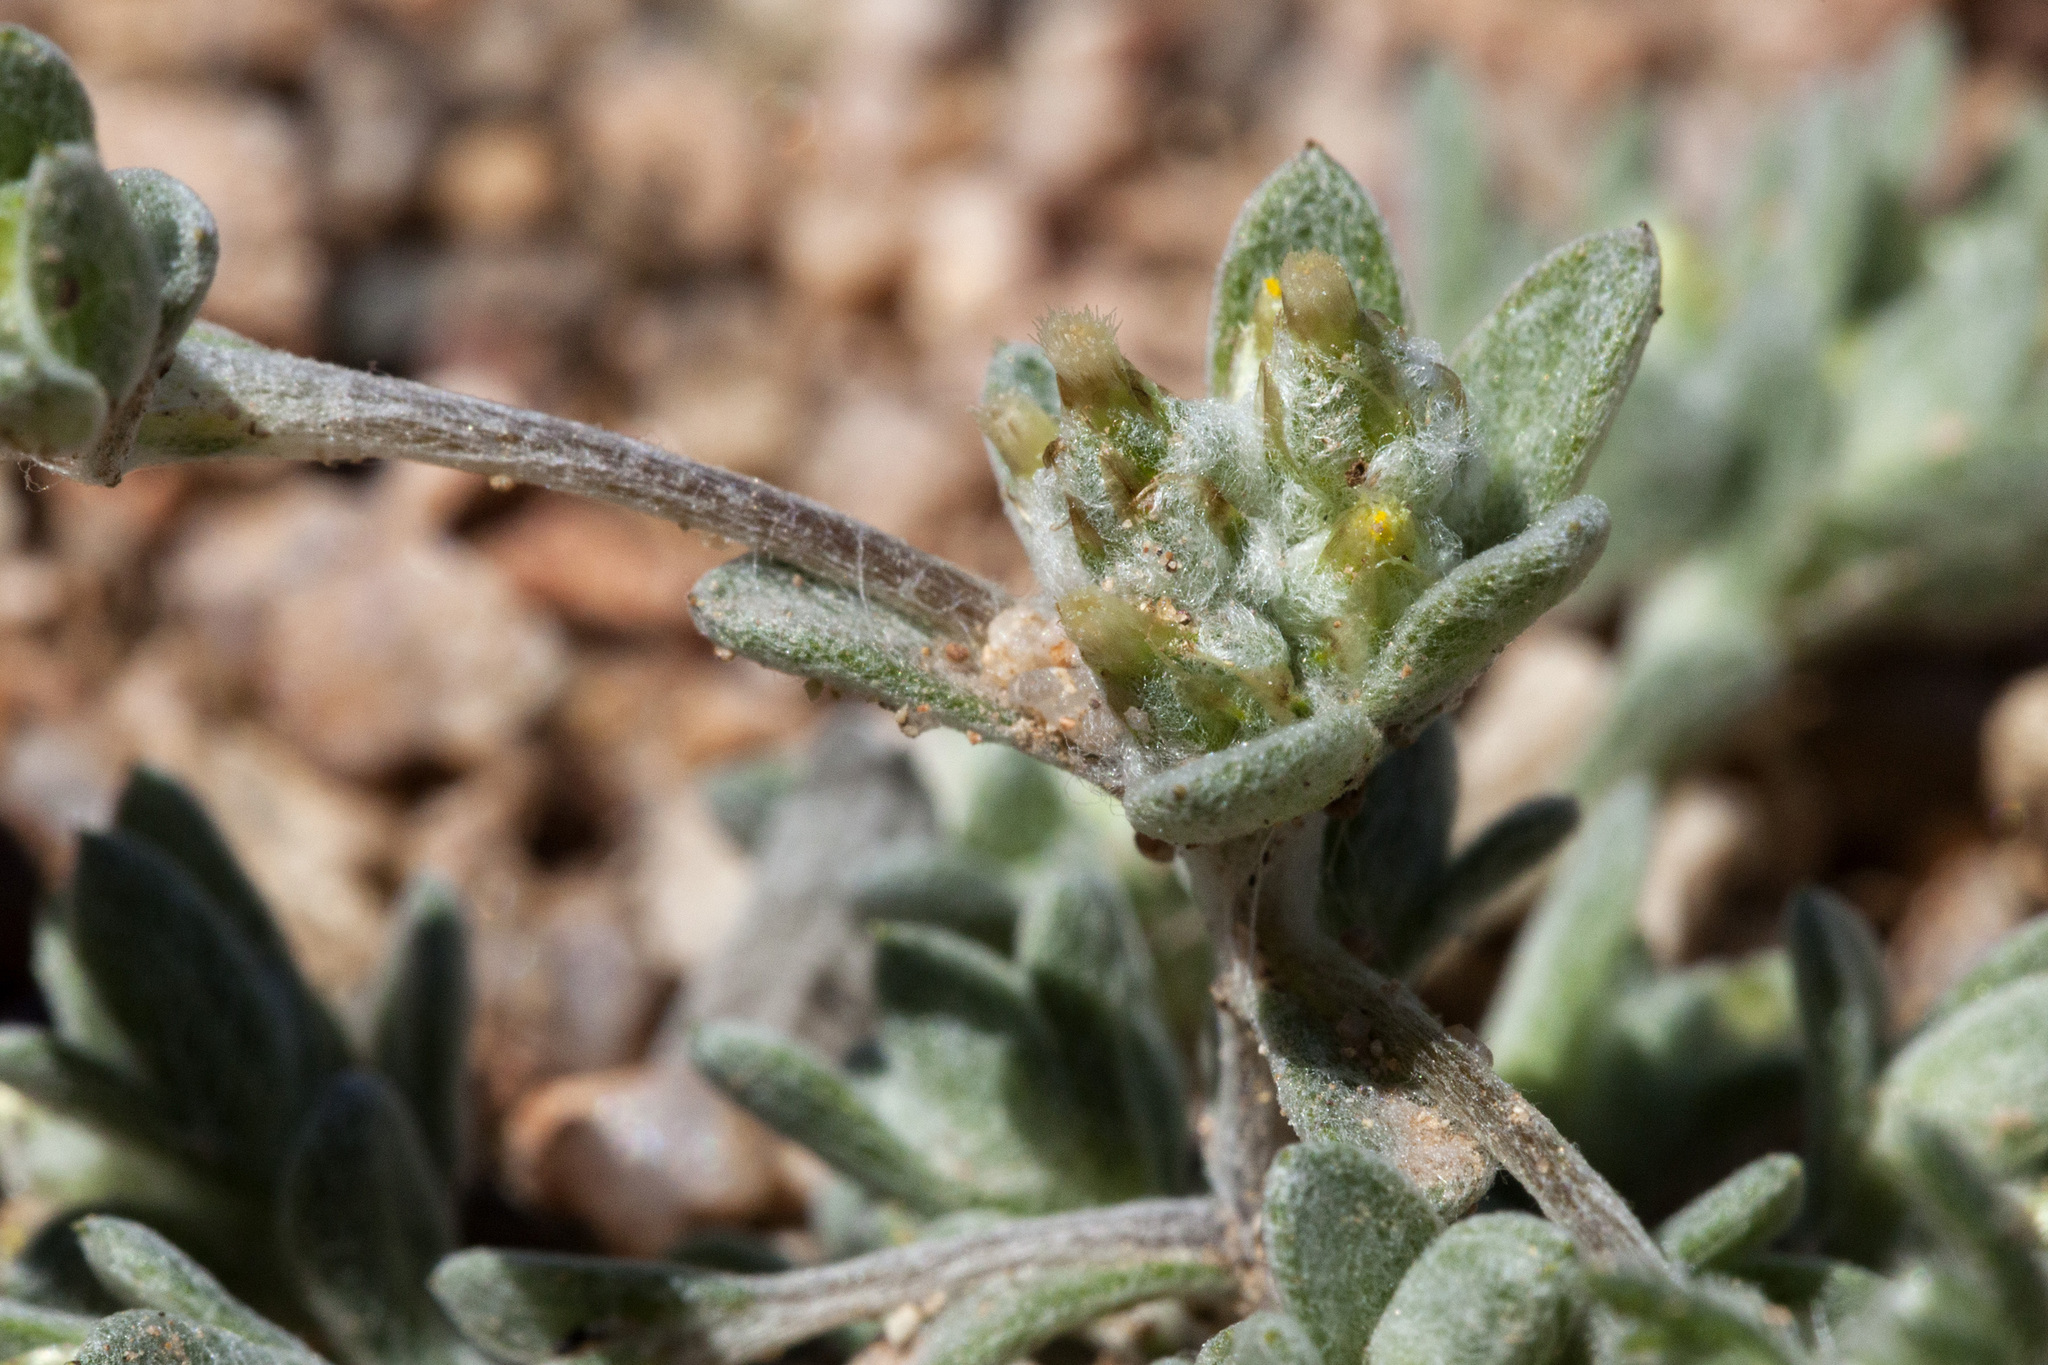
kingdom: Plantae
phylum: Tracheophyta
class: Magnoliopsida
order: Asterales
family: Asteraceae
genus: Logfia
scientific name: Logfia depressa
